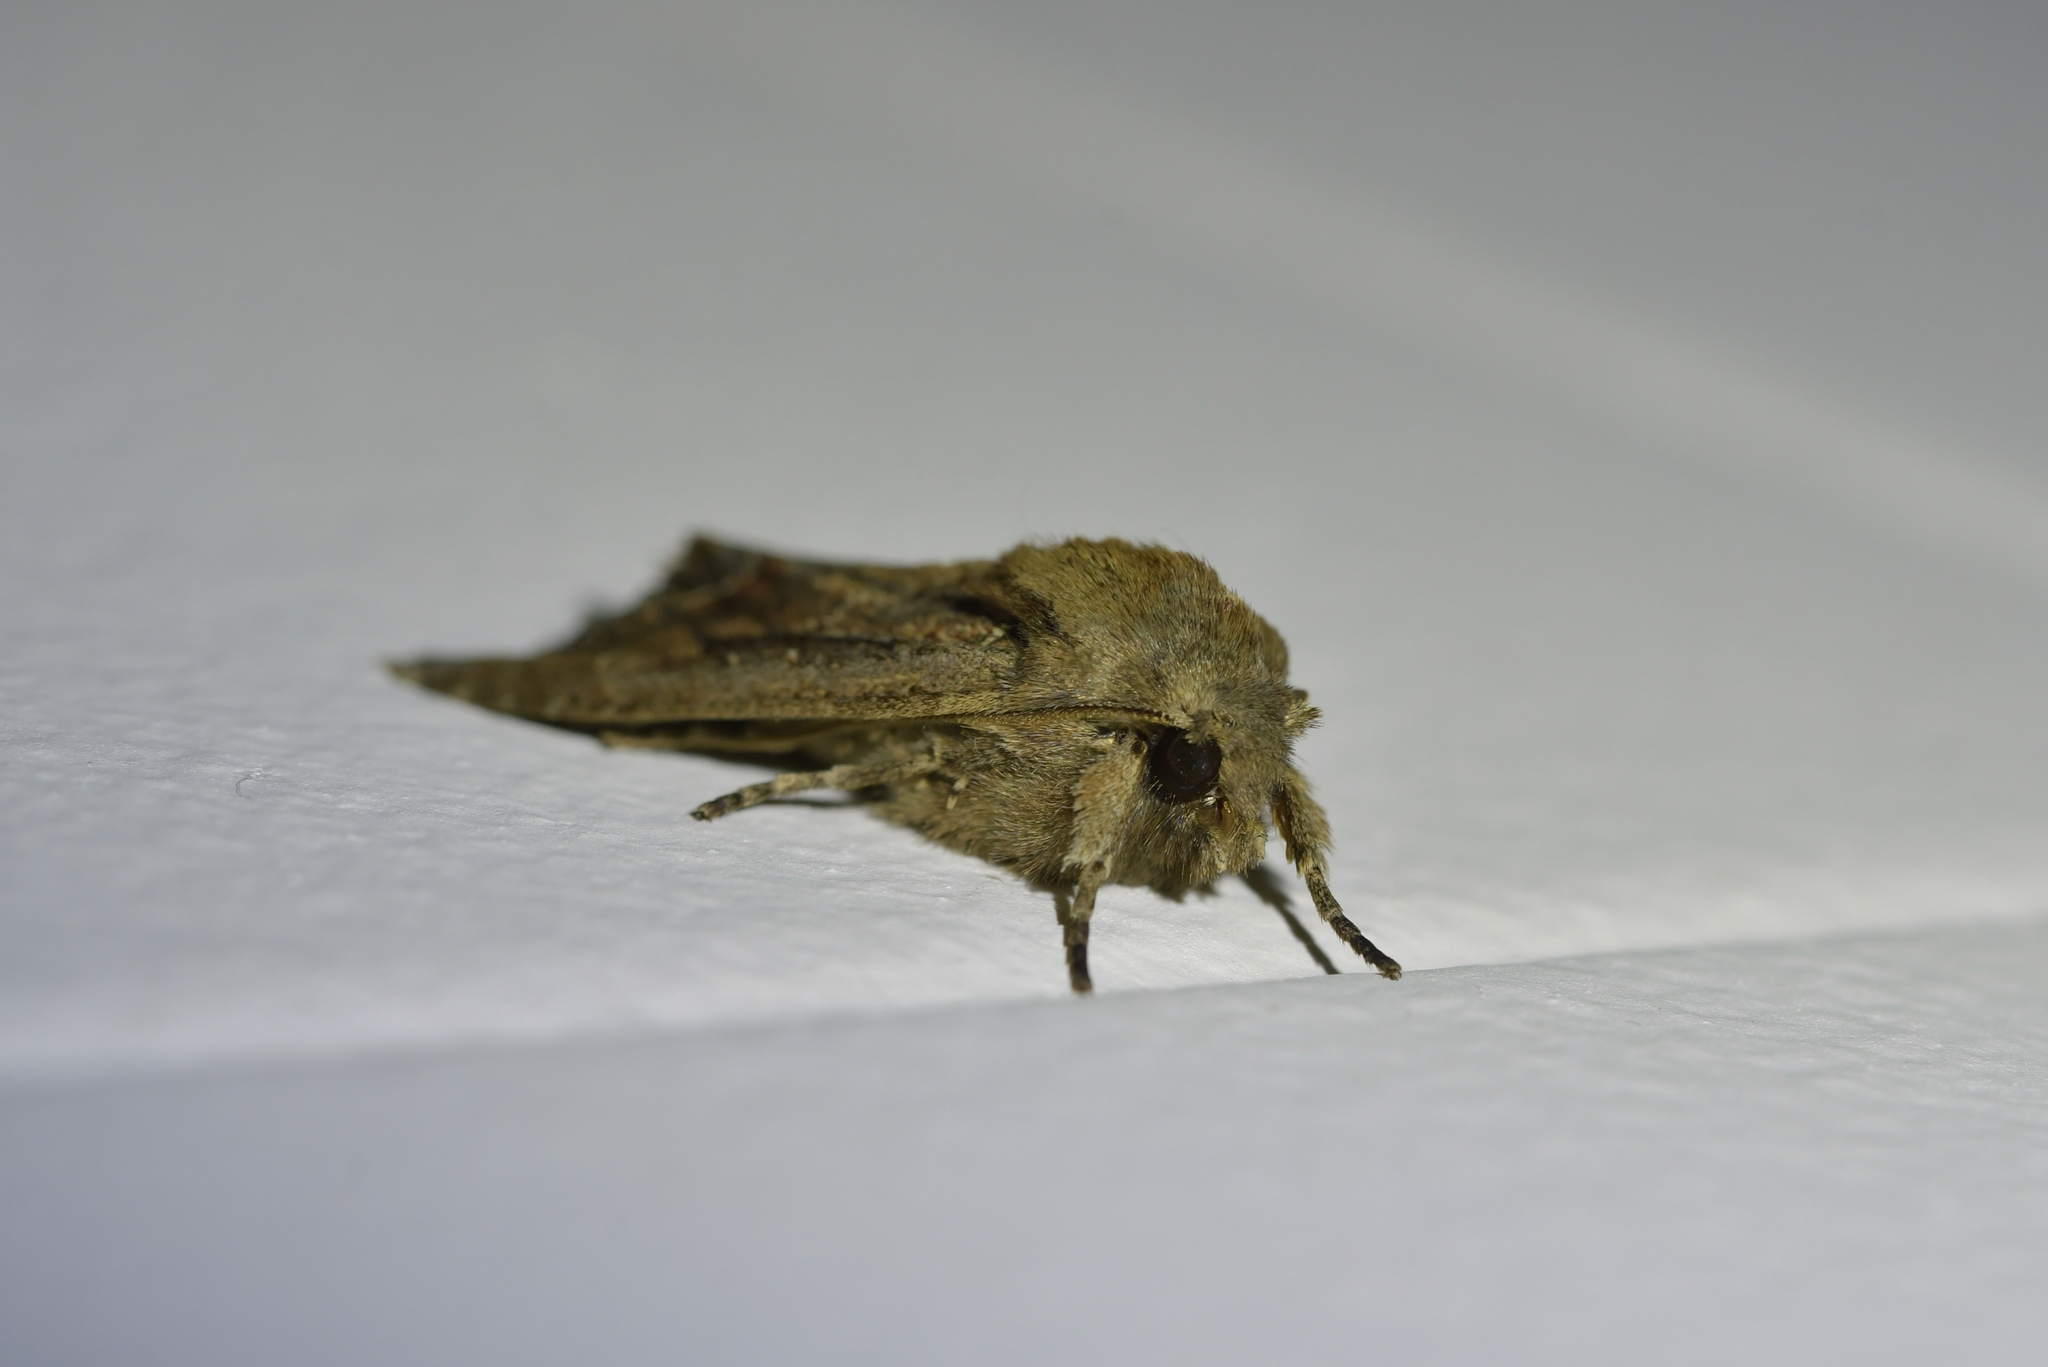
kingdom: Animalia
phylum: Arthropoda
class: Insecta
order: Lepidoptera
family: Noctuidae
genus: Ichneutica
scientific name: Ichneutica
